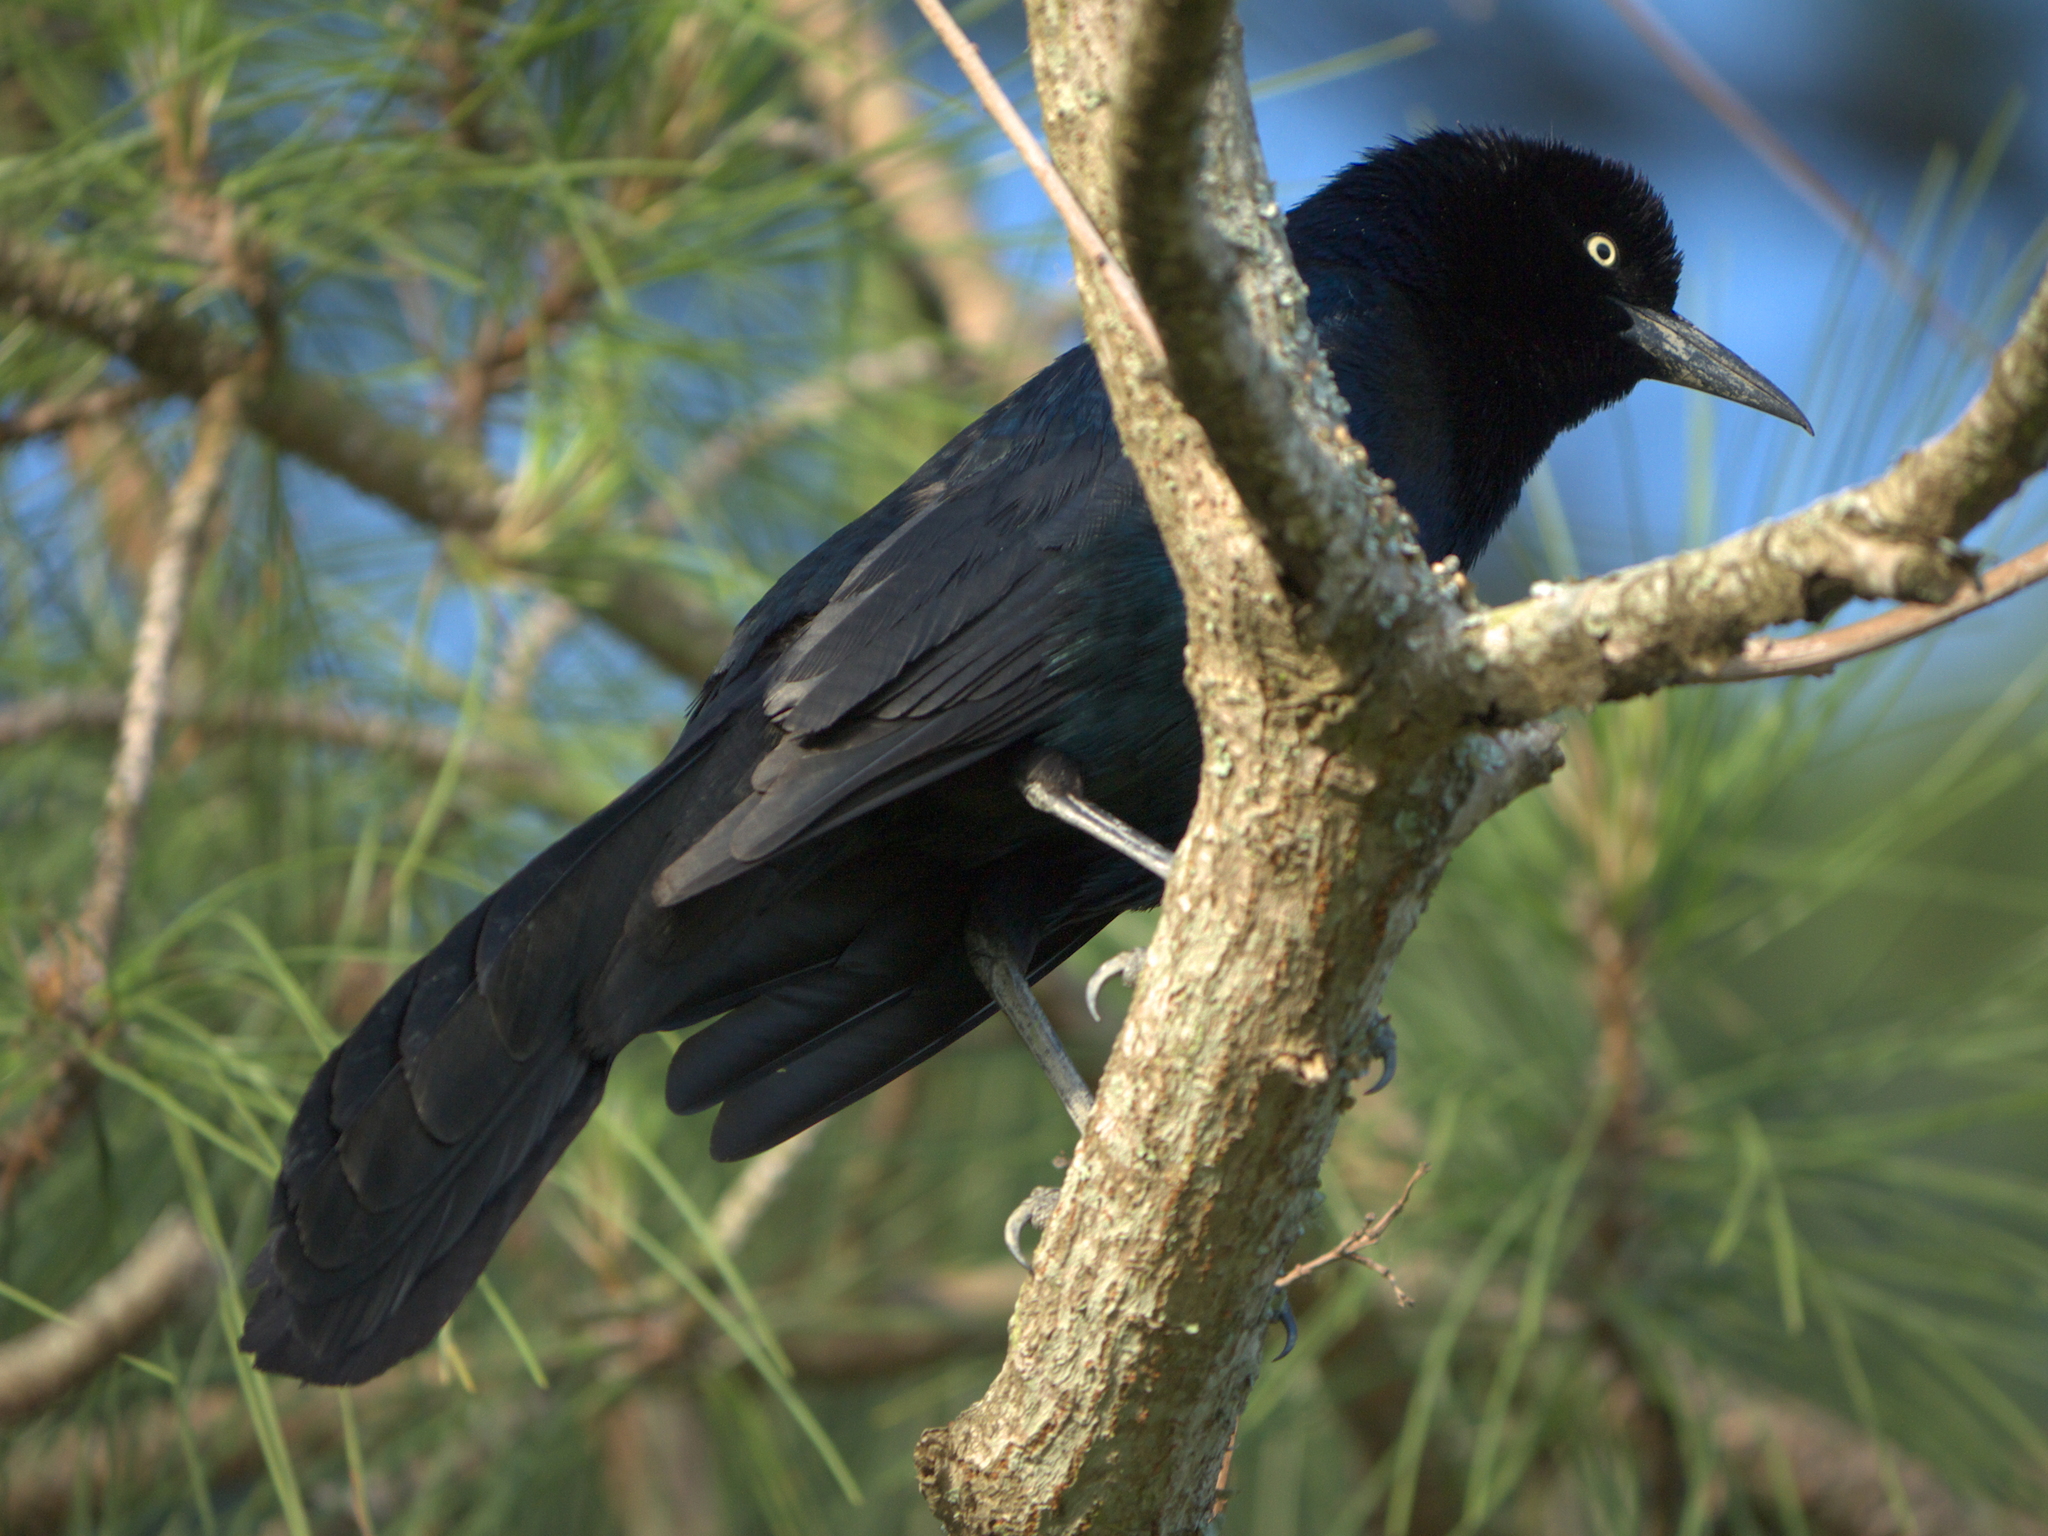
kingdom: Animalia
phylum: Chordata
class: Aves
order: Passeriformes
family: Icteridae
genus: Quiscalus
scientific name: Quiscalus major
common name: Boat-tailed grackle
